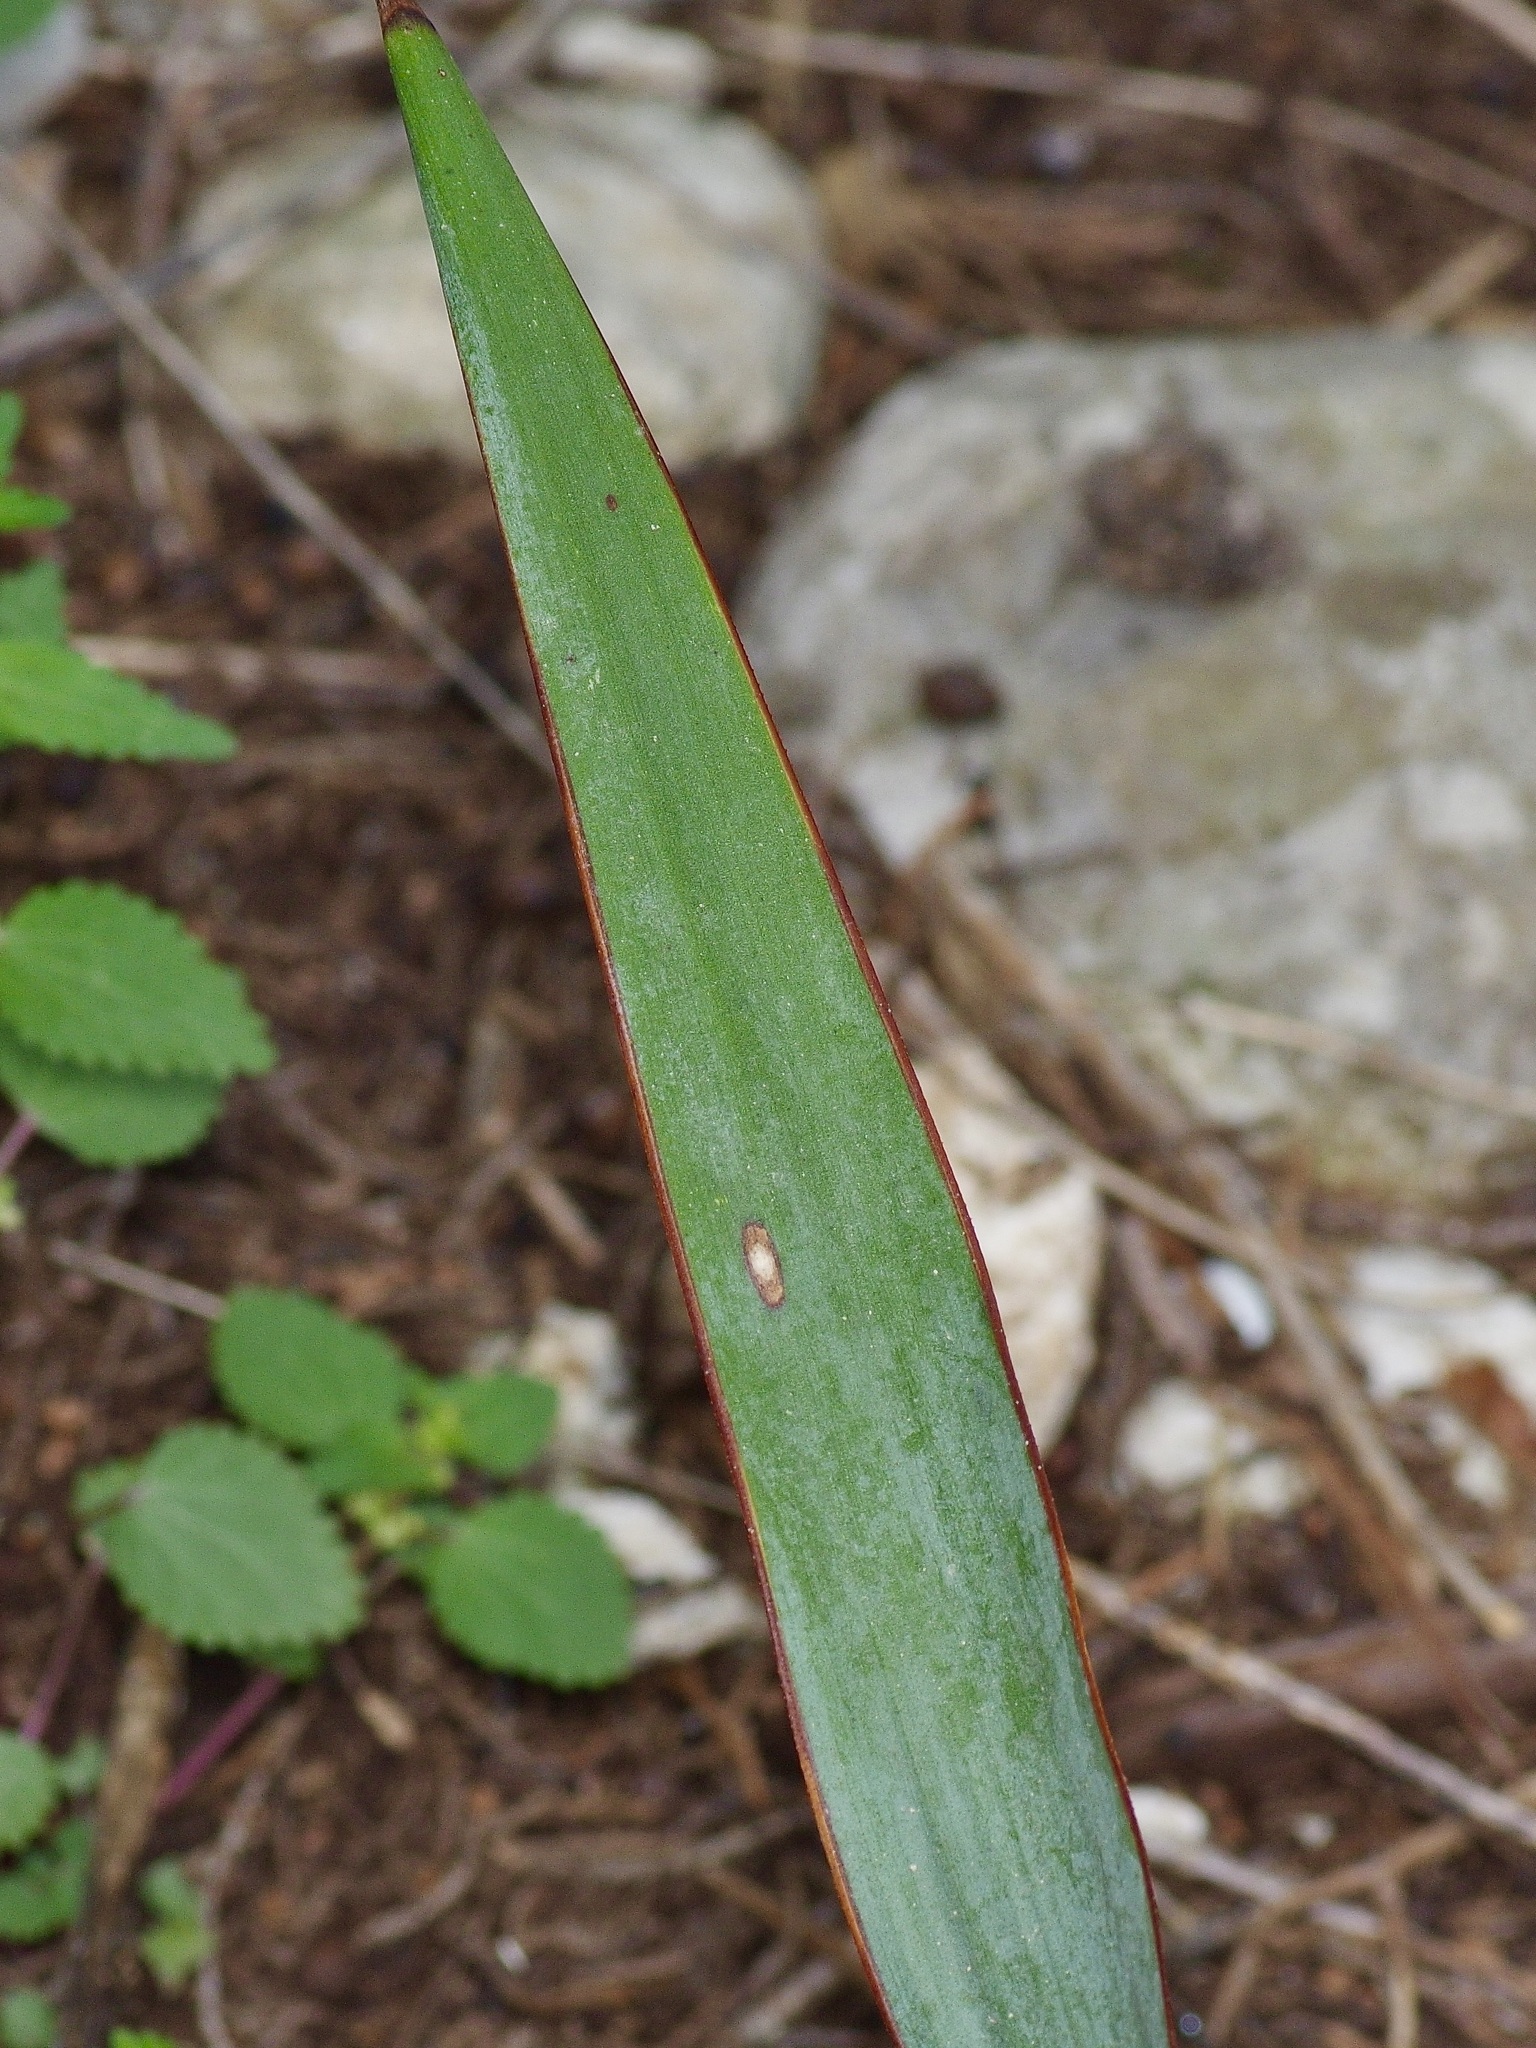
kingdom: Plantae
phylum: Tracheophyta
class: Liliopsida
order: Asparagales
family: Asparagaceae
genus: Yucca
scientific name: Yucca pallida
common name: Pale leaf yucca
